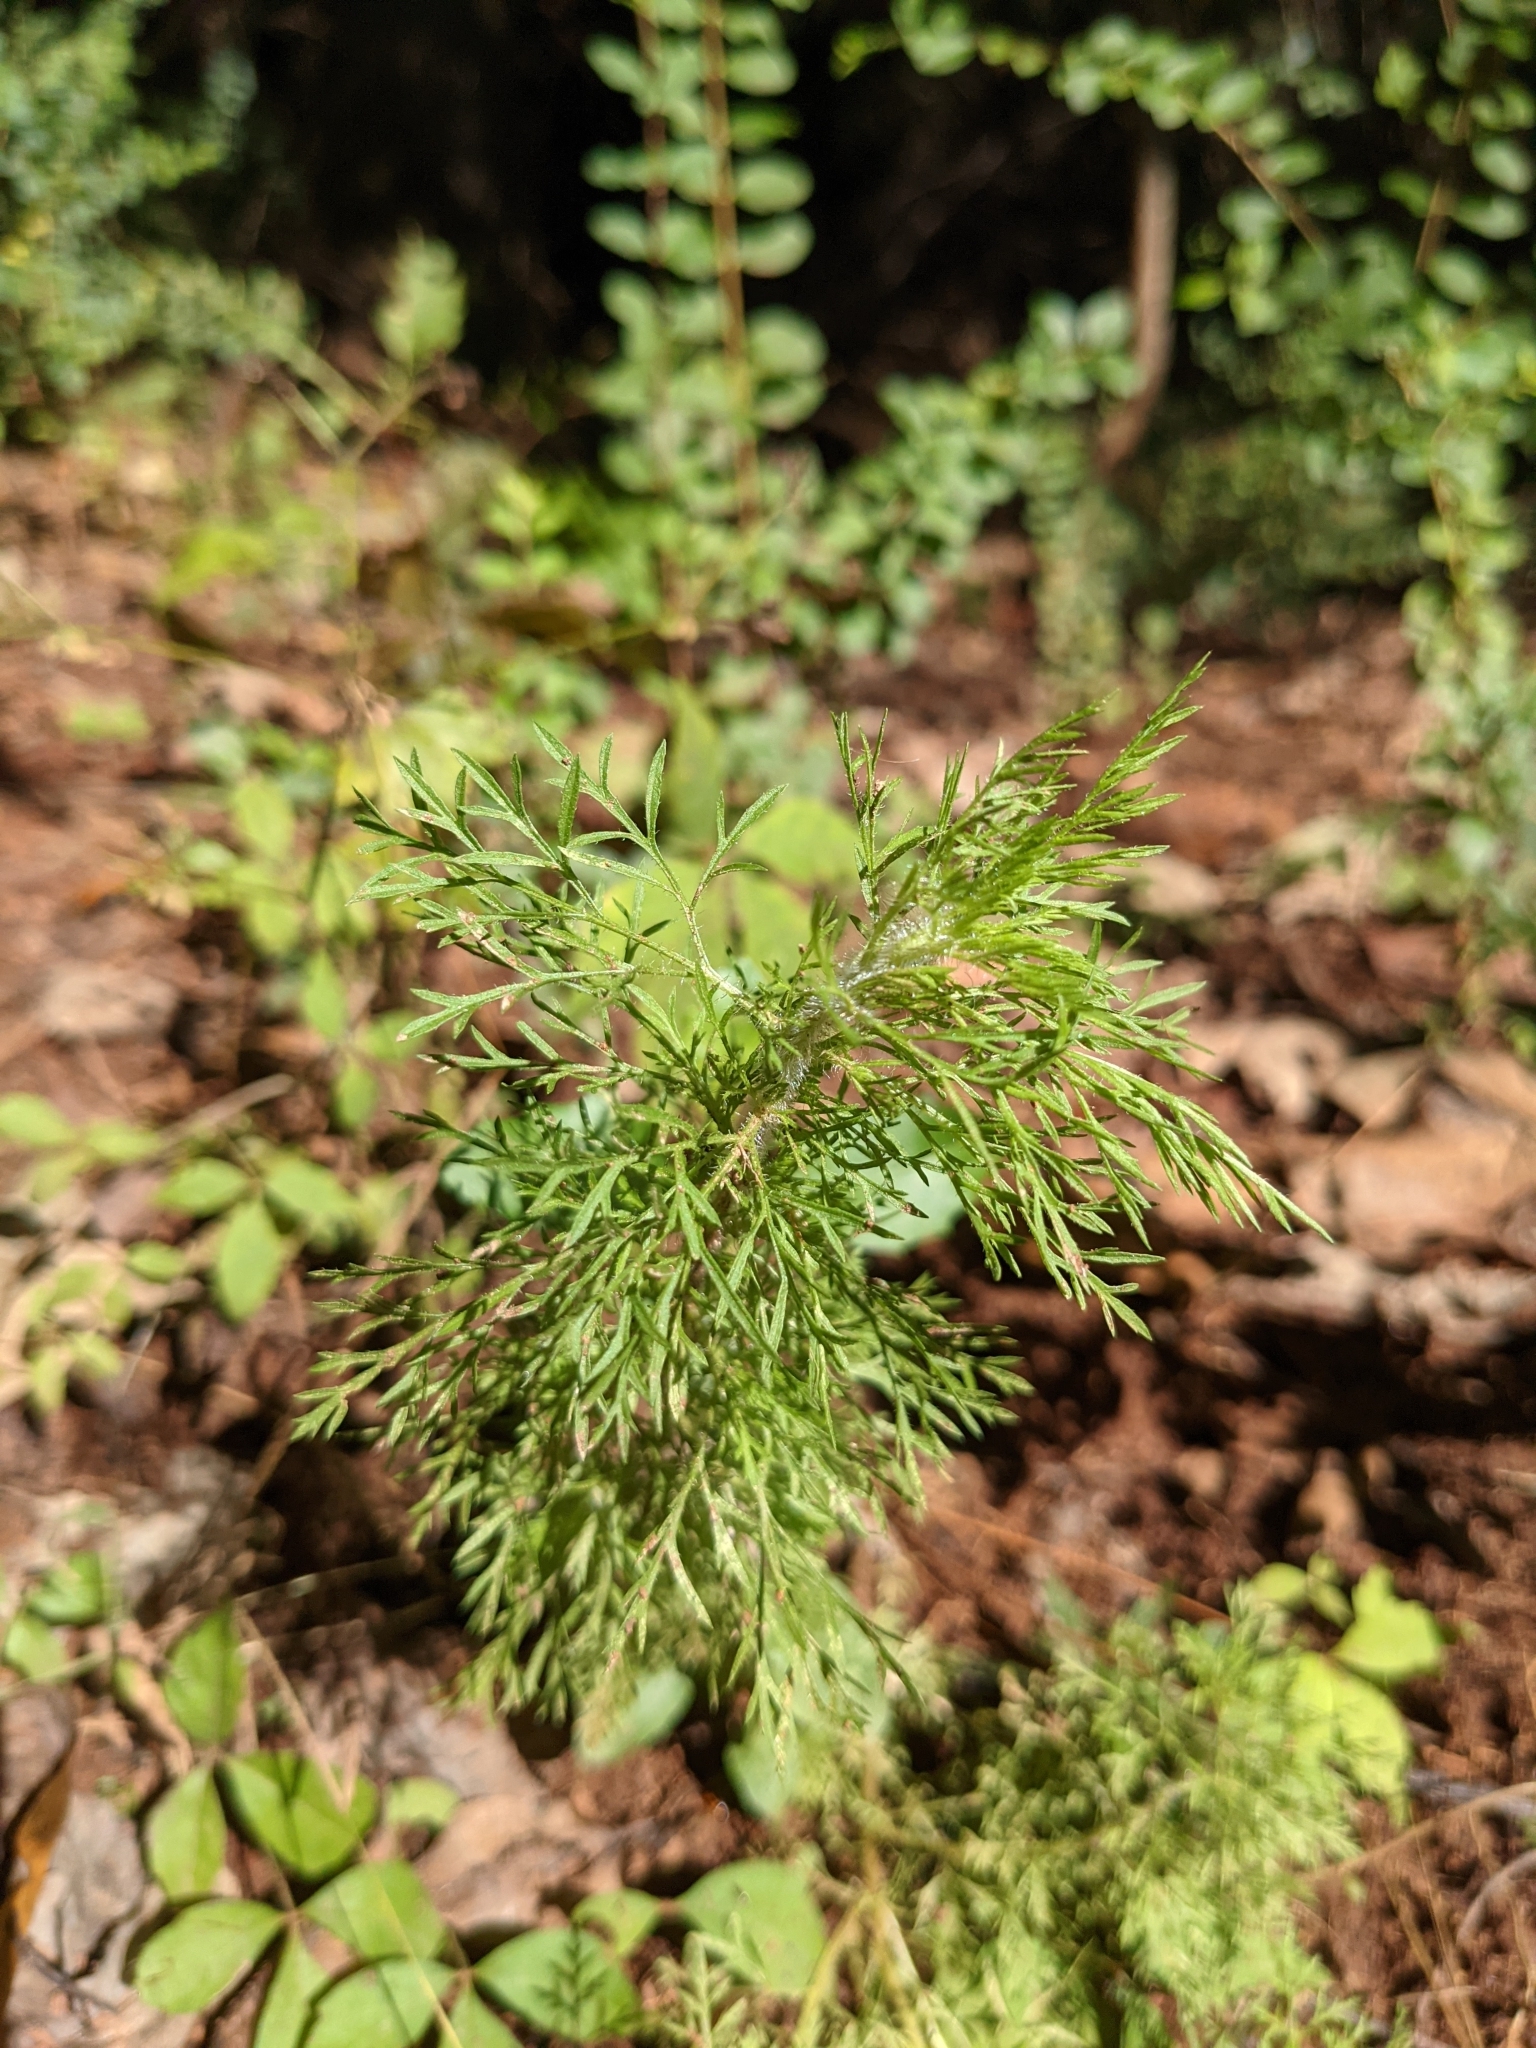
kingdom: Plantae
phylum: Tracheophyta
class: Magnoliopsida
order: Asterales
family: Asteraceae
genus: Eupatorium
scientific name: Eupatorium capillifolium
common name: Dog-fennel
